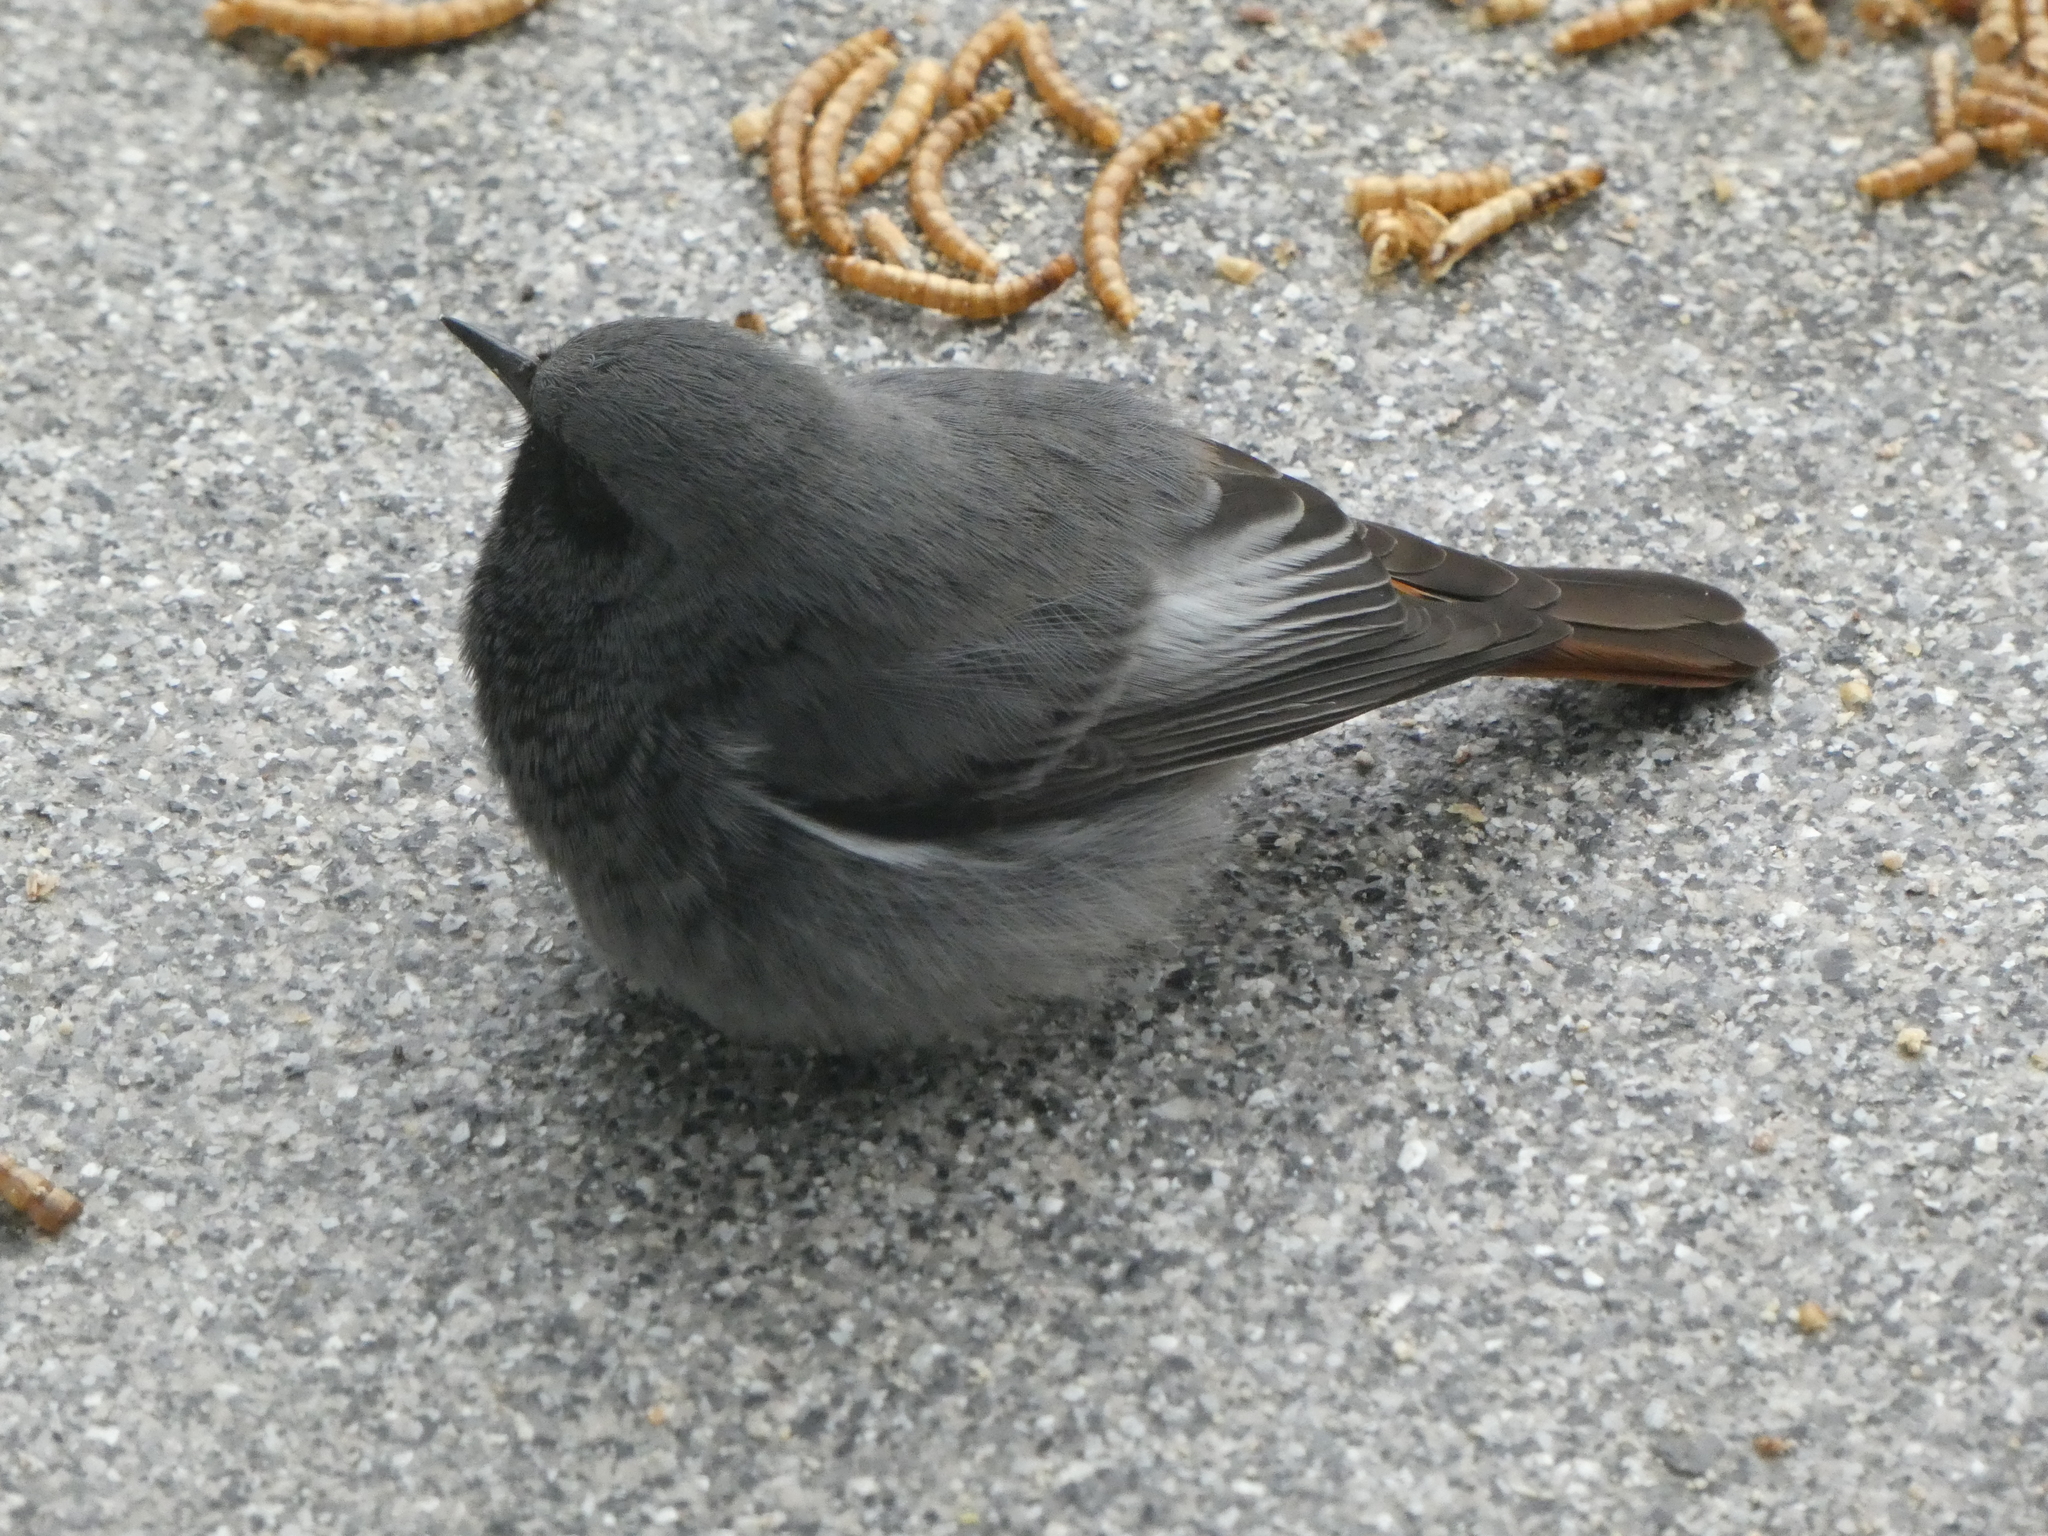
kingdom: Animalia
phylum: Chordata
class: Aves
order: Passeriformes
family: Muscicapidae
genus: Phoenicurus
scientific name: Phoenicurus ochruros
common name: Black redstart
